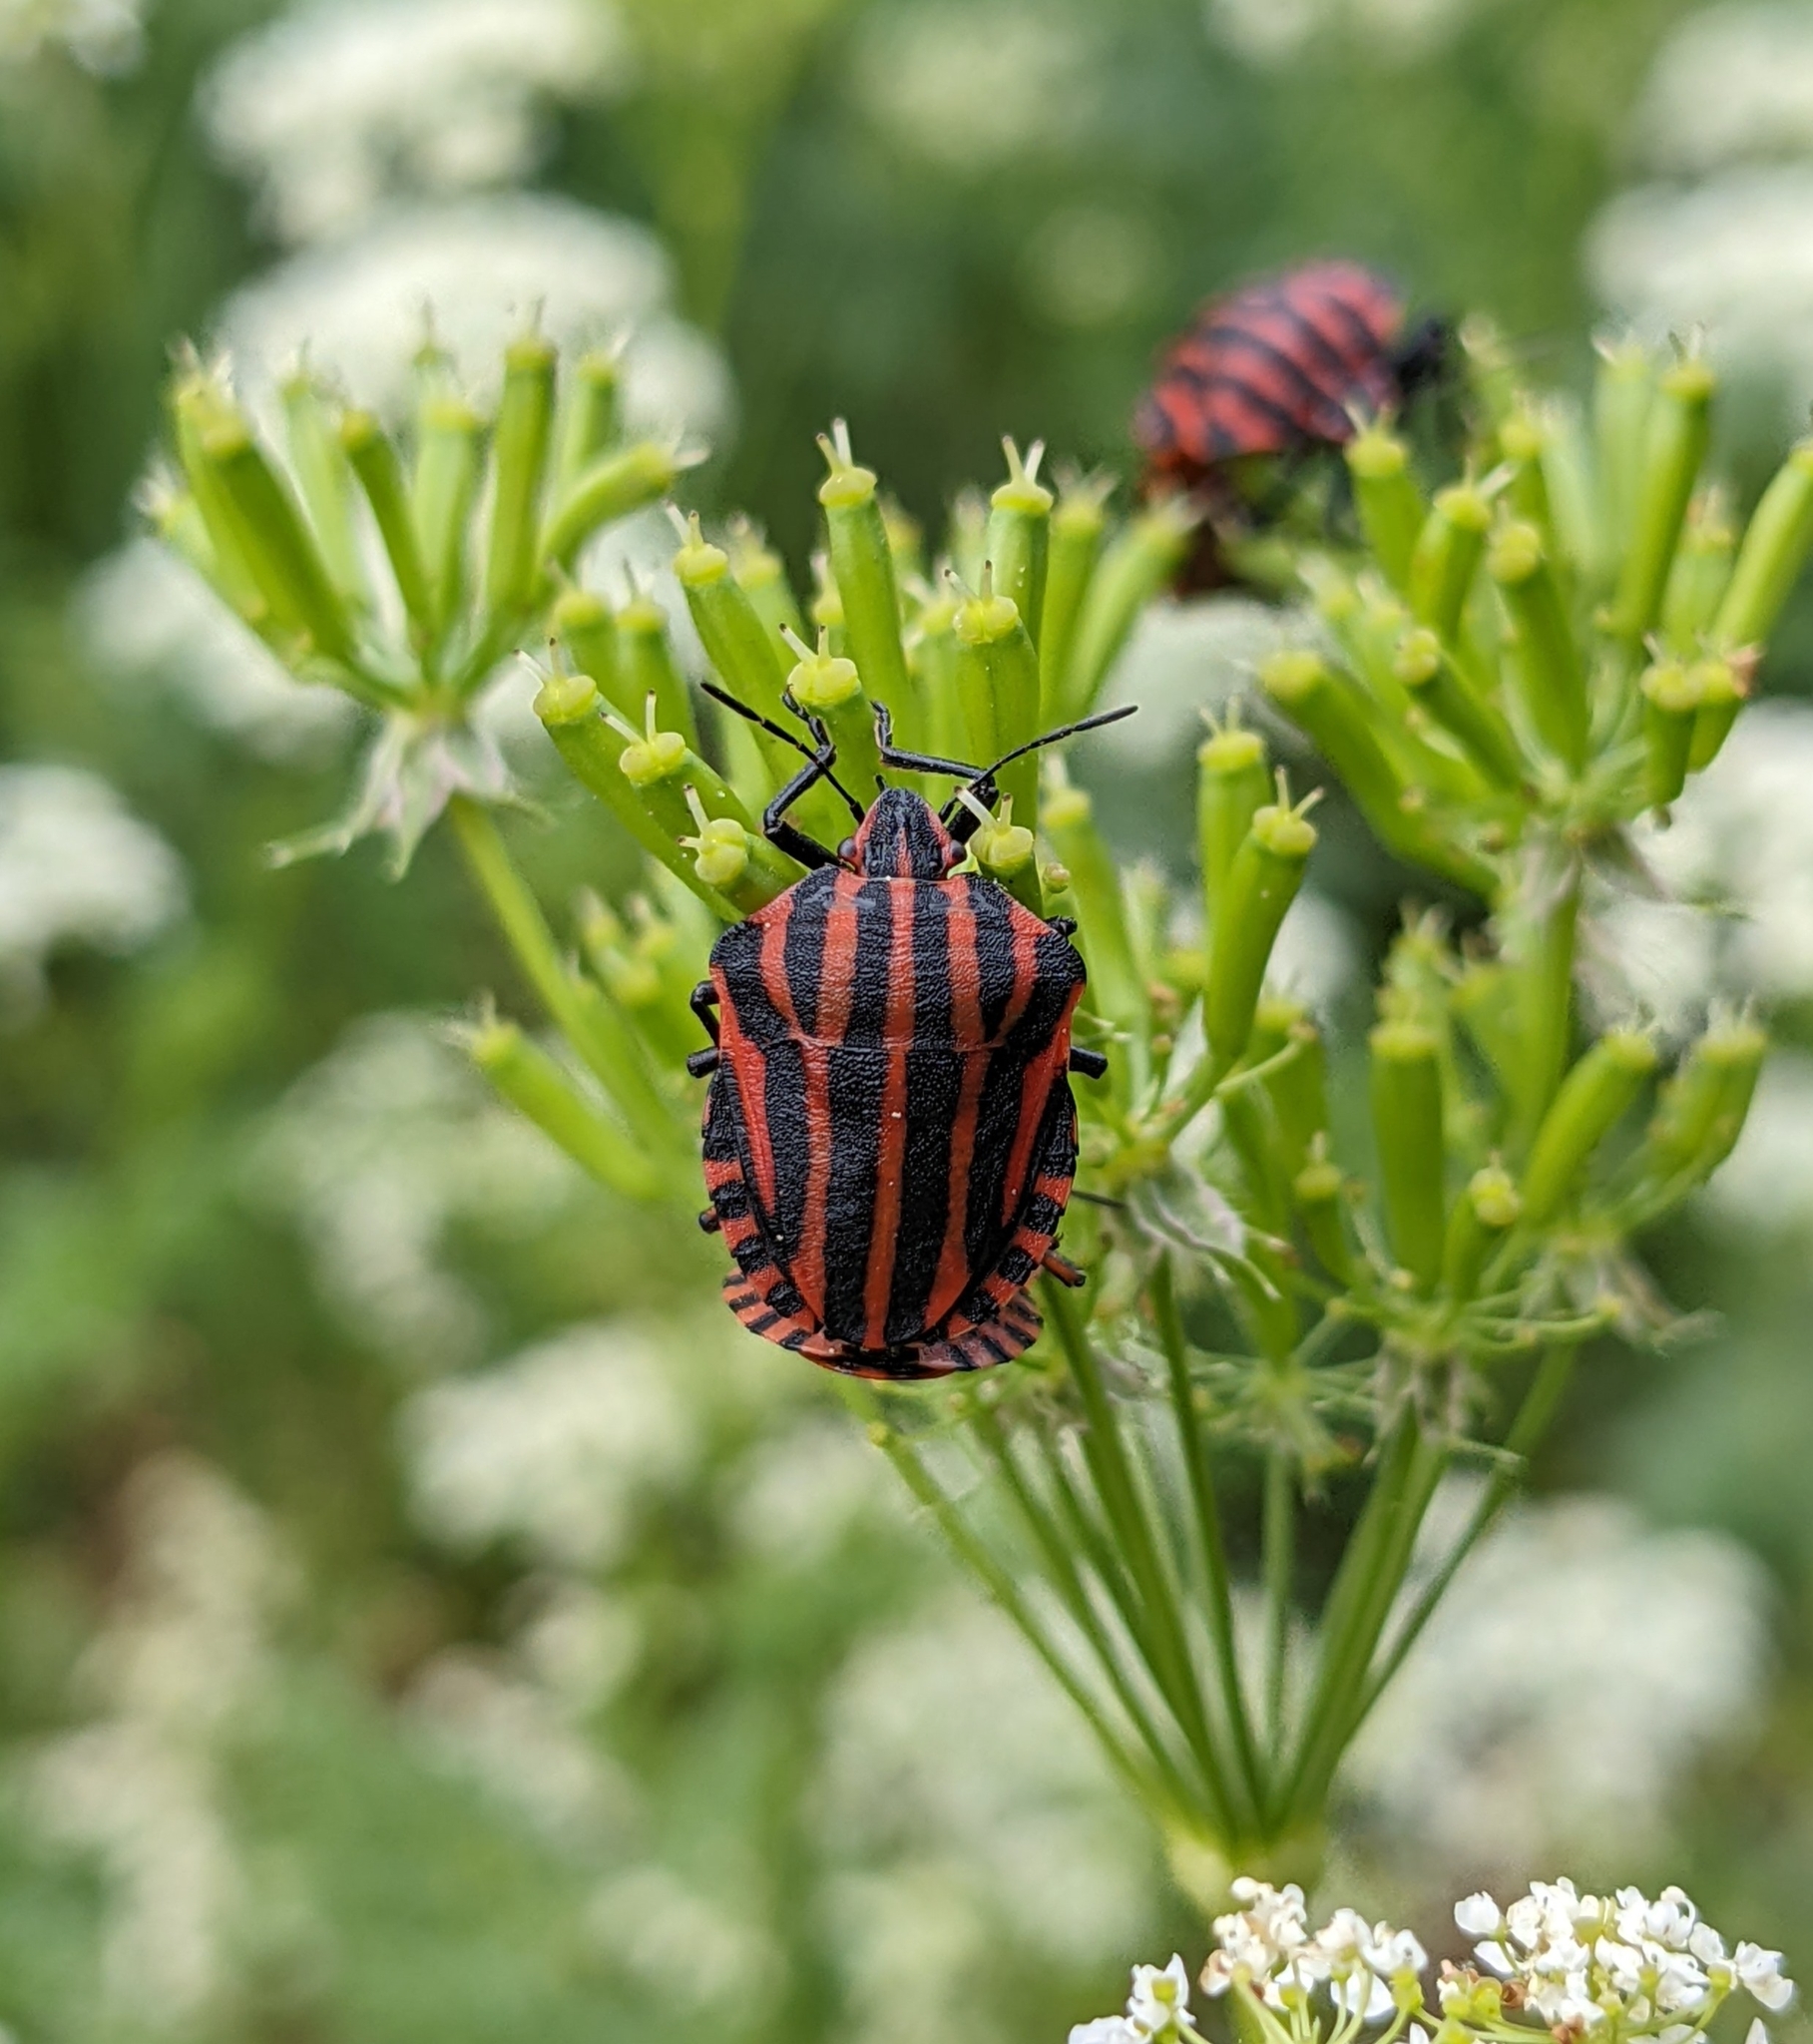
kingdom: Animalia
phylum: Arthropoda
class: Insecta
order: Hemiptera
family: Pentatomidae
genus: Graphosoma
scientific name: Graphosoma italicum
